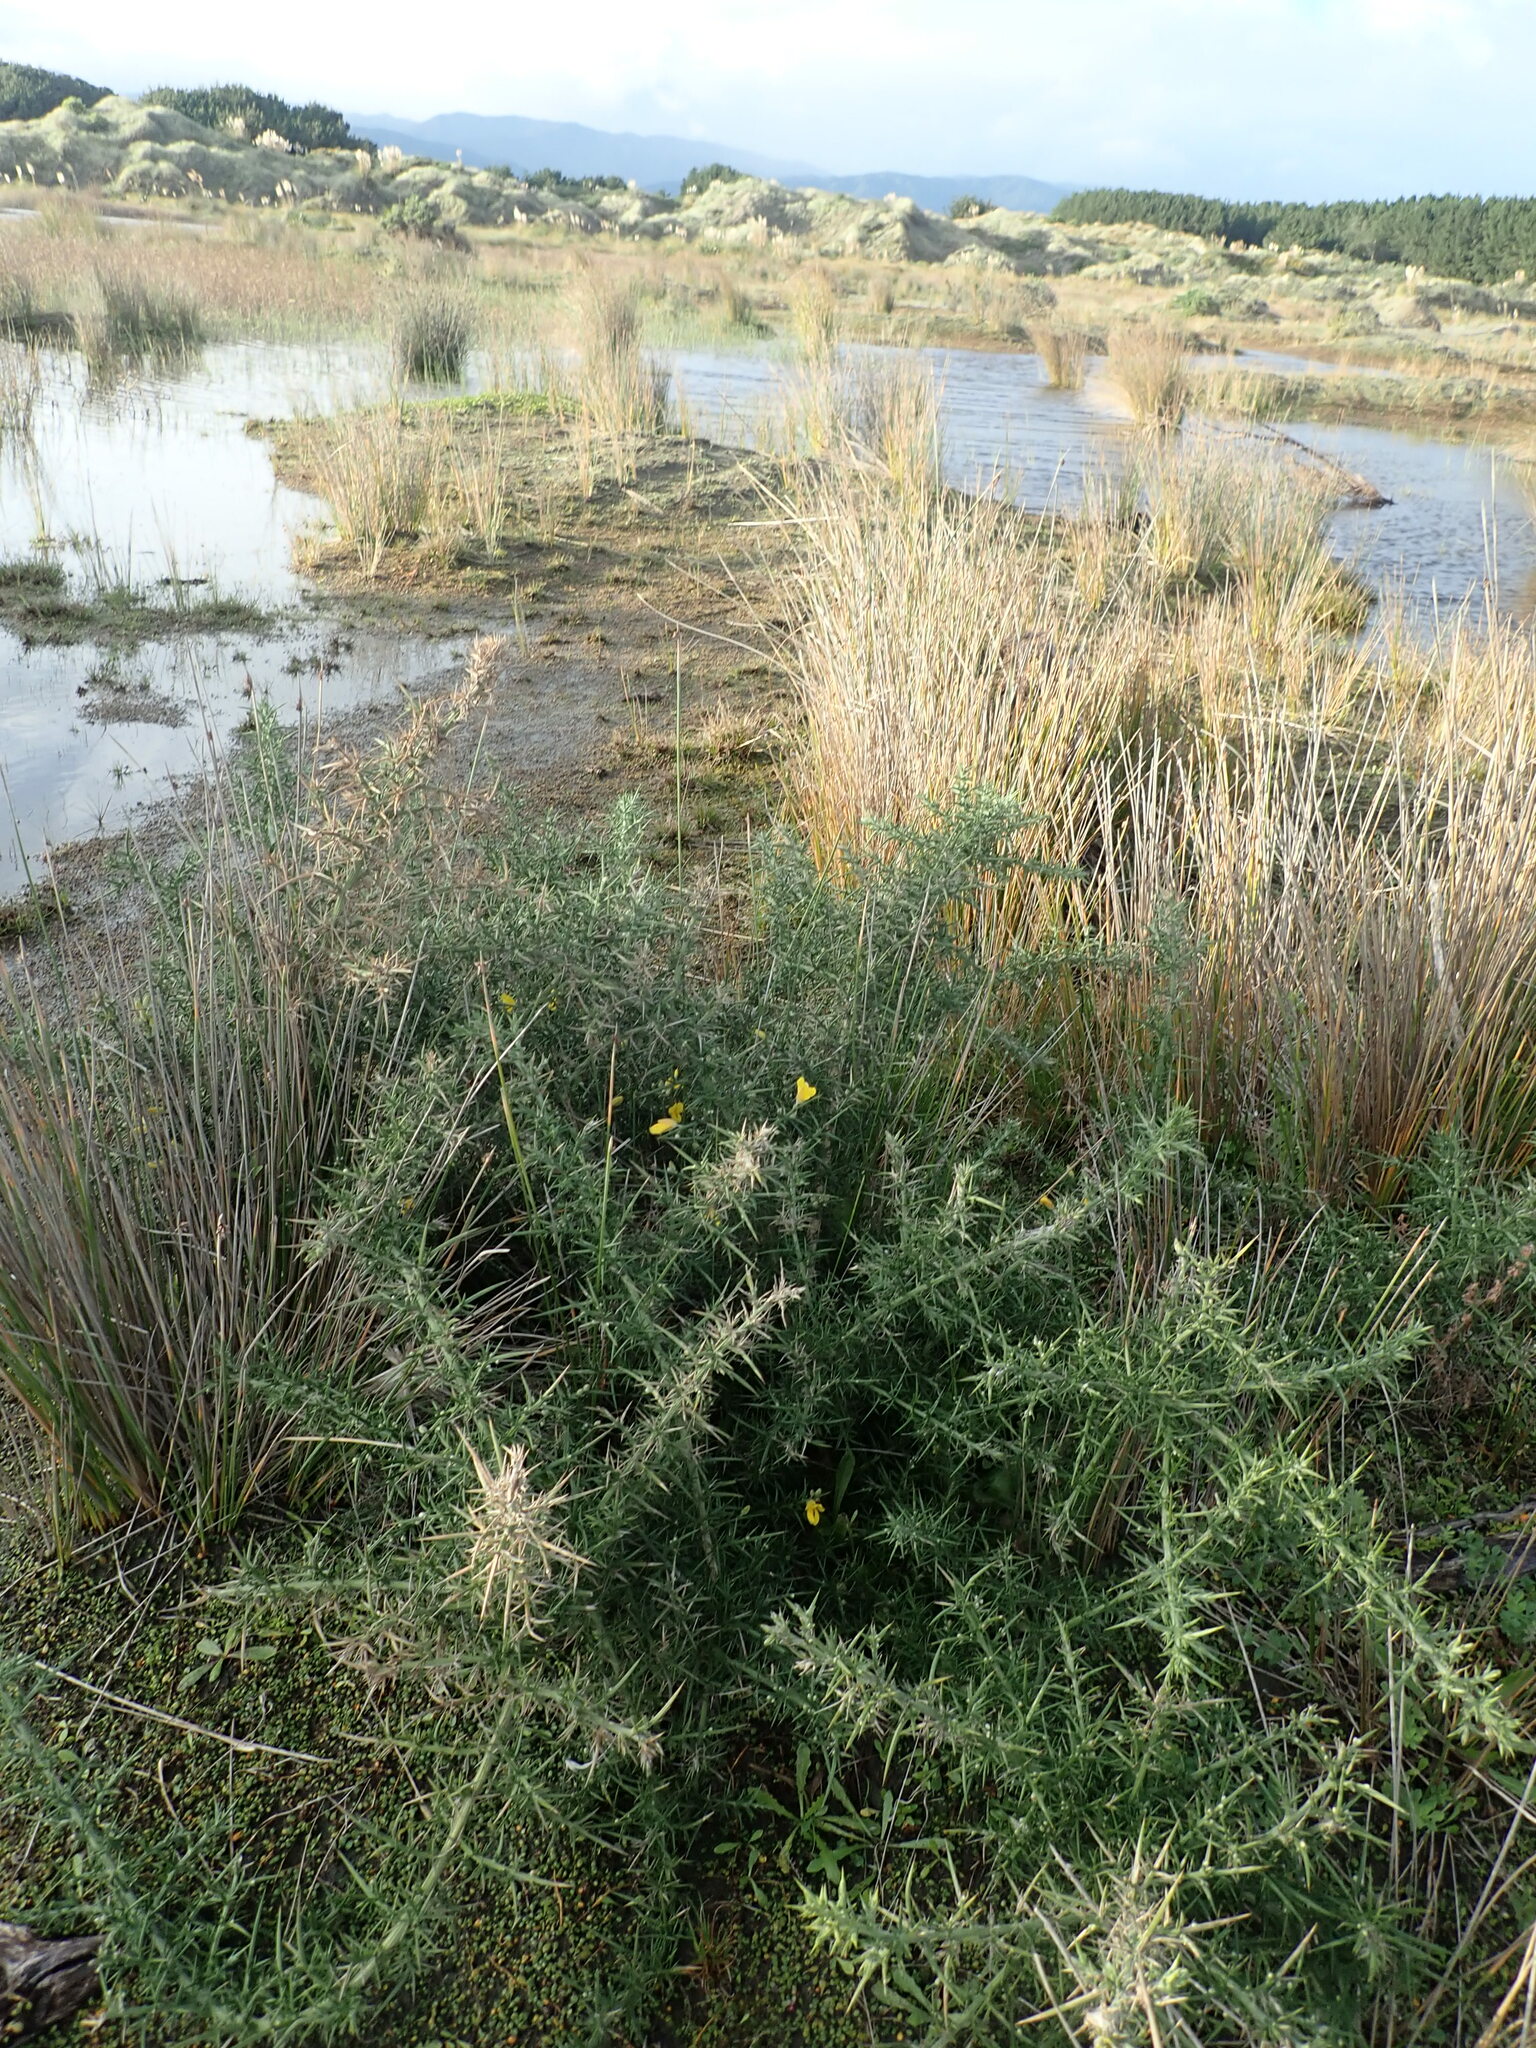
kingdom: Plantae
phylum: Tracheophyta
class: Magnoliopsida
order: Fabales
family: Fabaceae
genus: Ulex
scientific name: Ulex europaeus
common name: Common gorse
